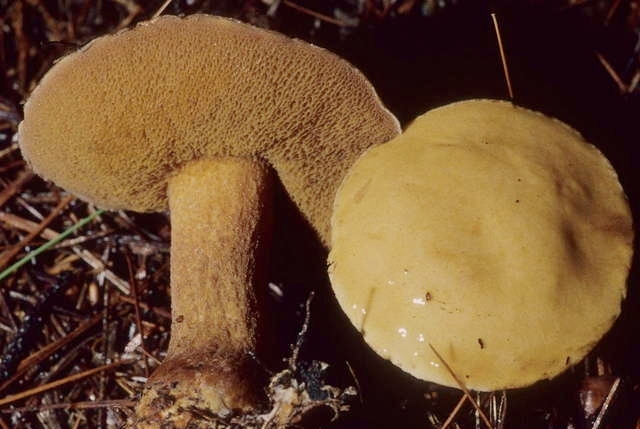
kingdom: Fungi
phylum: Basidiomycota
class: Agaricomycetes
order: Boletales
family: Suillaceae
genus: Suillus
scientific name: Suillus punctipes
